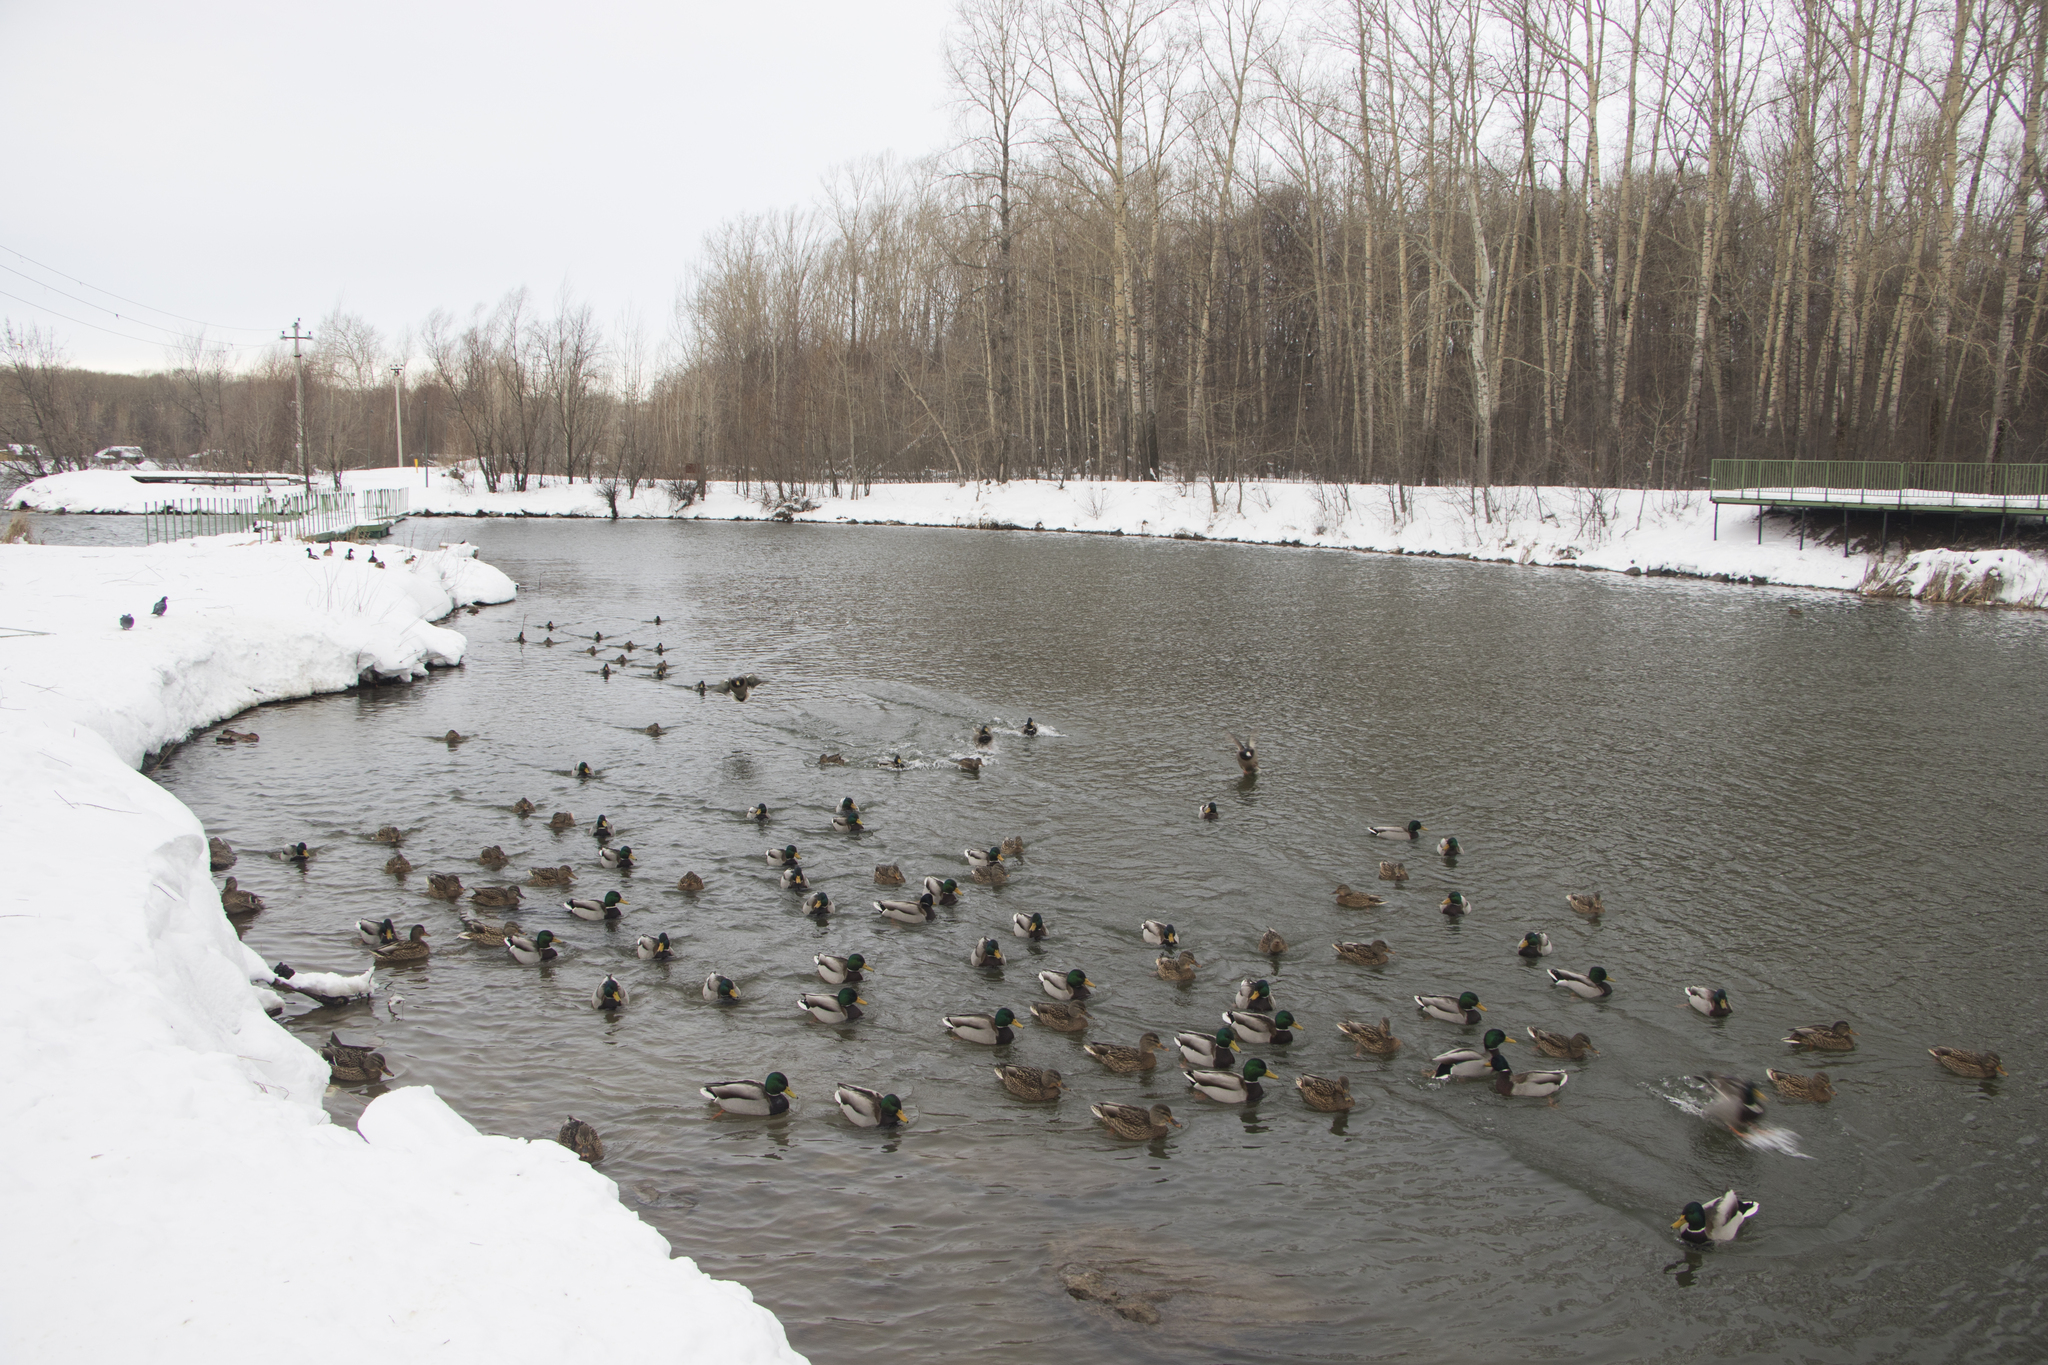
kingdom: Animalia
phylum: Chordata
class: Aves
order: Anseriformes
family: Anatidae
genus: Anas
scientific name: Anas platyrhynchos
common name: Mallard
